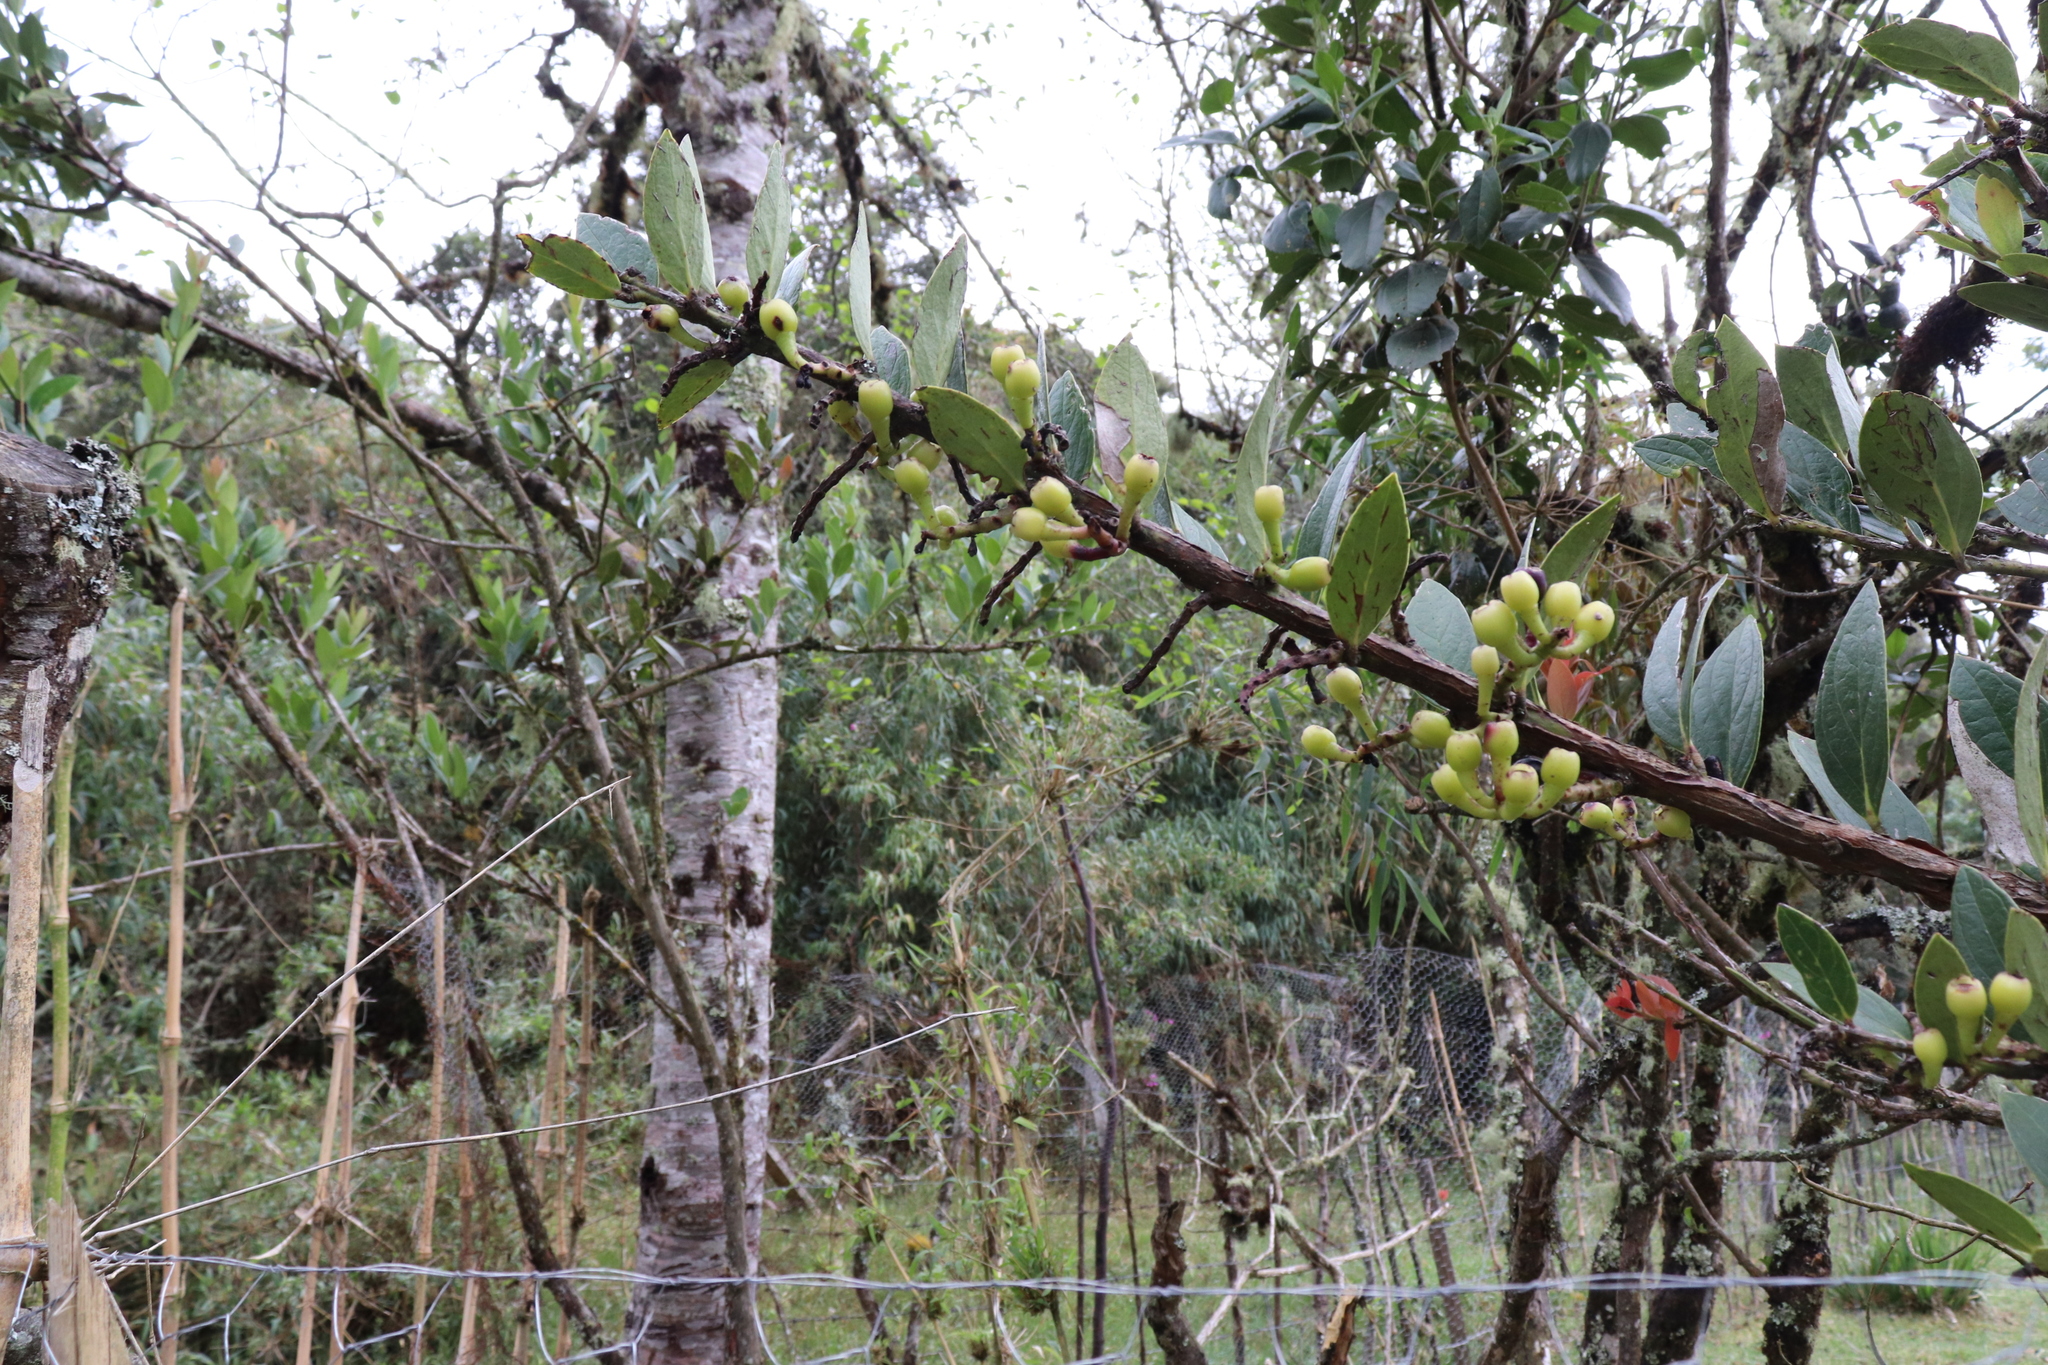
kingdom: Plantae
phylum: Tracheophyta
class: Magnoliopsida
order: Ericales
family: Ericaceae
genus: Macleania
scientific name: Macleania rupestris
